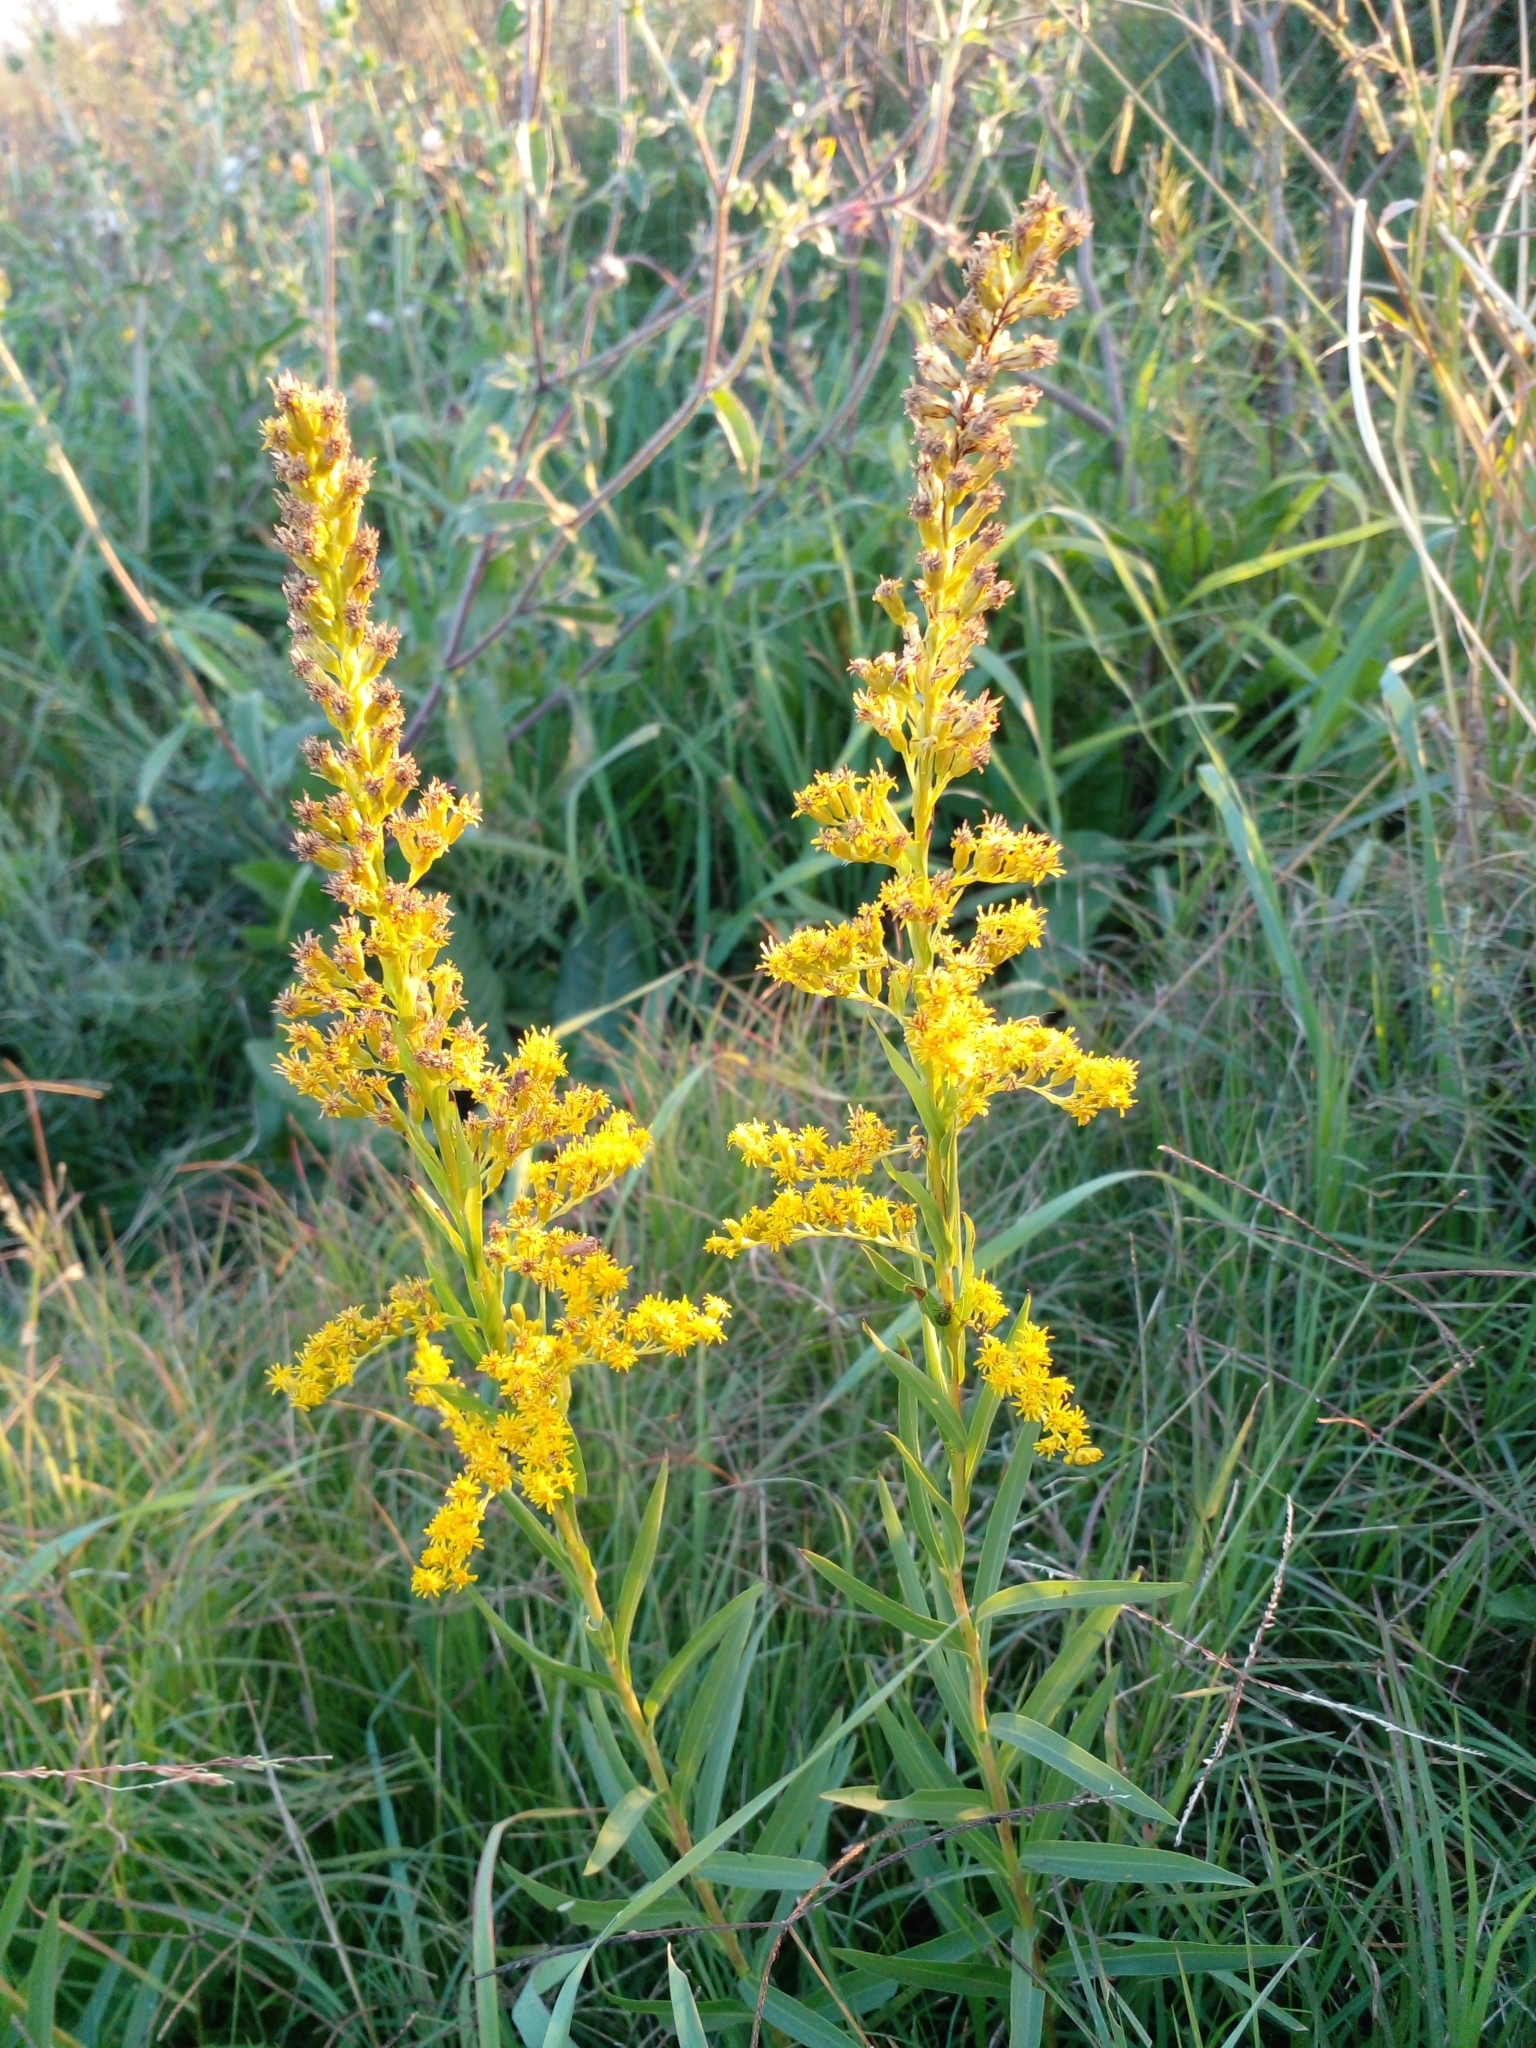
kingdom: Plantae
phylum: Tracheophyta
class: Magnoliopsida
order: Asterales
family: Asteraceae
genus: Solidago
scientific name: Solidago chilensis
